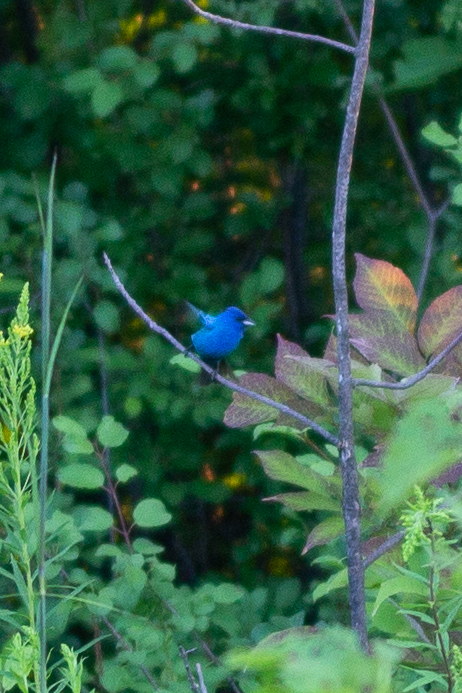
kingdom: Animalia
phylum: Chordata
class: Aves
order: Passeriformes
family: Cardinalidae
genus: Passerina
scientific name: Passerina cyanea
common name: Indigo bunting
